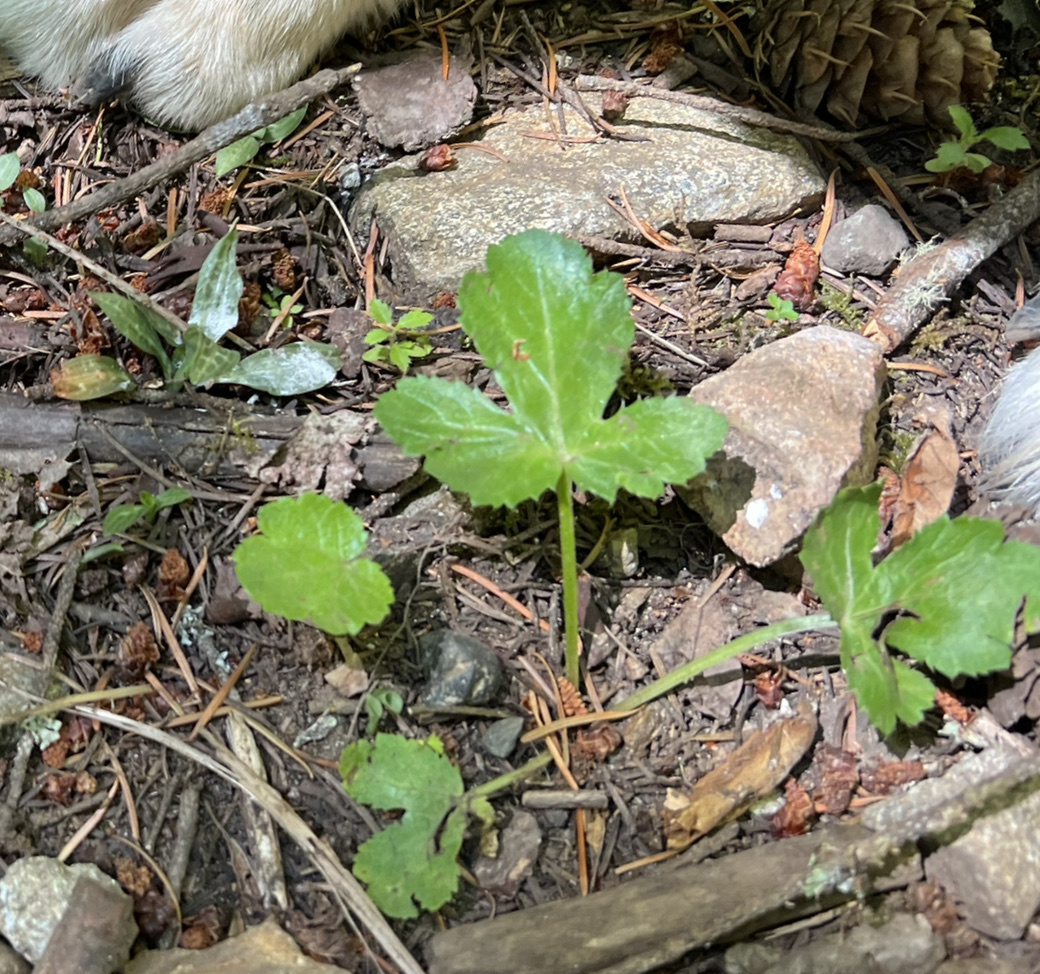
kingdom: Plantae
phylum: Tracheophyta
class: Magnoliopsida
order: Apiales
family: Apiaceae
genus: Sanicula
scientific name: Sanicula crassicaulis
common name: Western snakeroot
